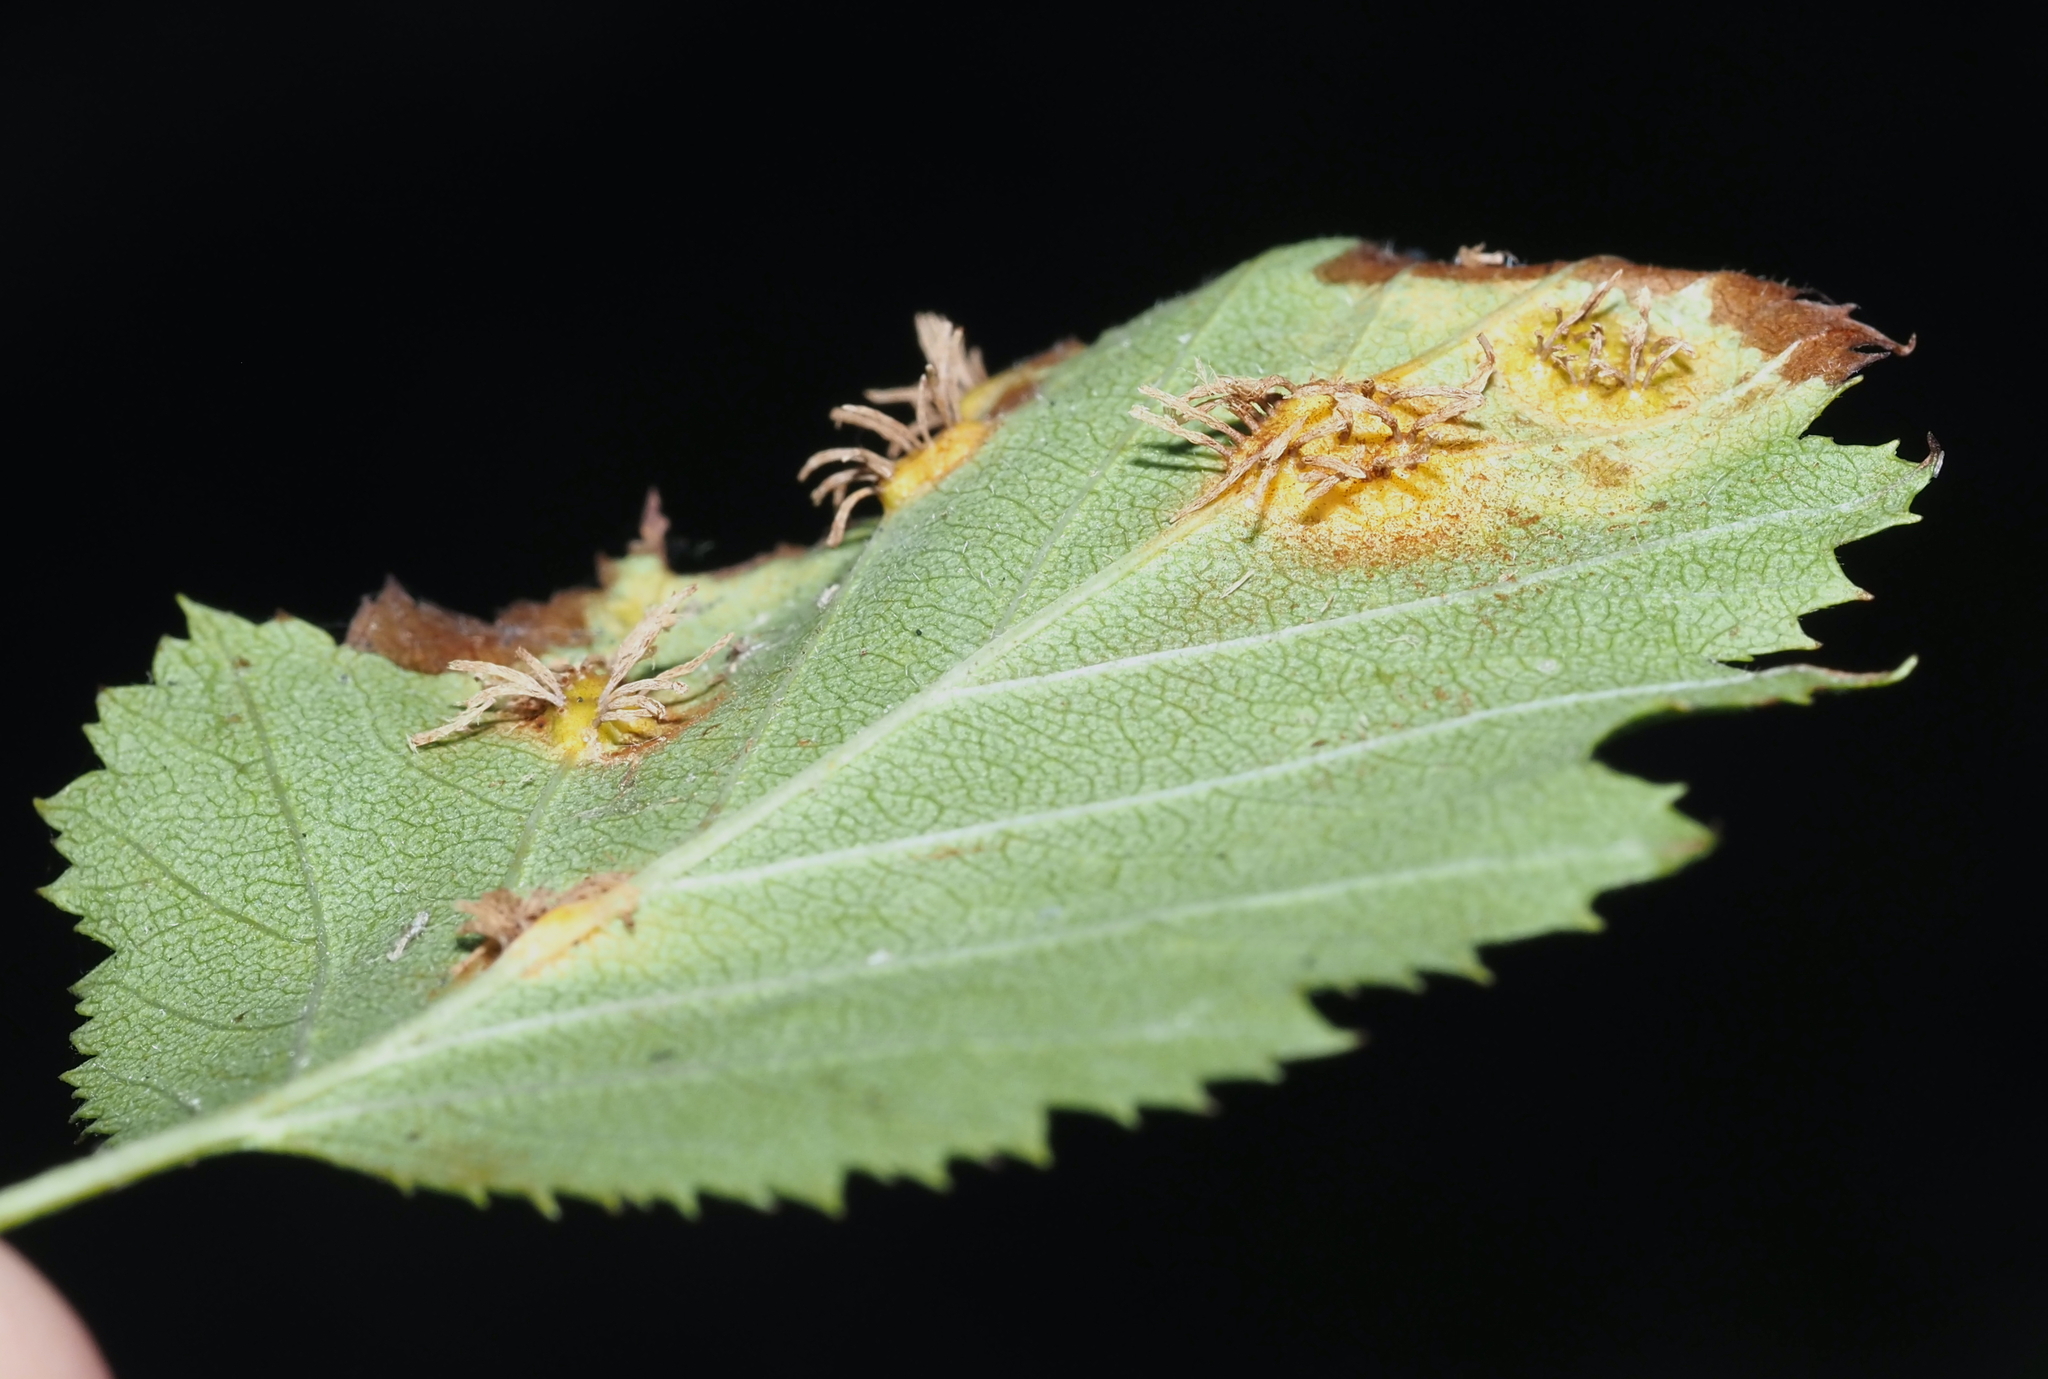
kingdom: Fungi
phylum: Basidiomycota
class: Pucciniomycetes
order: Pucciniales
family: Gymnosporangiaceae
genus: Gymnosporangium
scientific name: Gymnosporangium globosum
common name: Juniper-hawthorn rust
